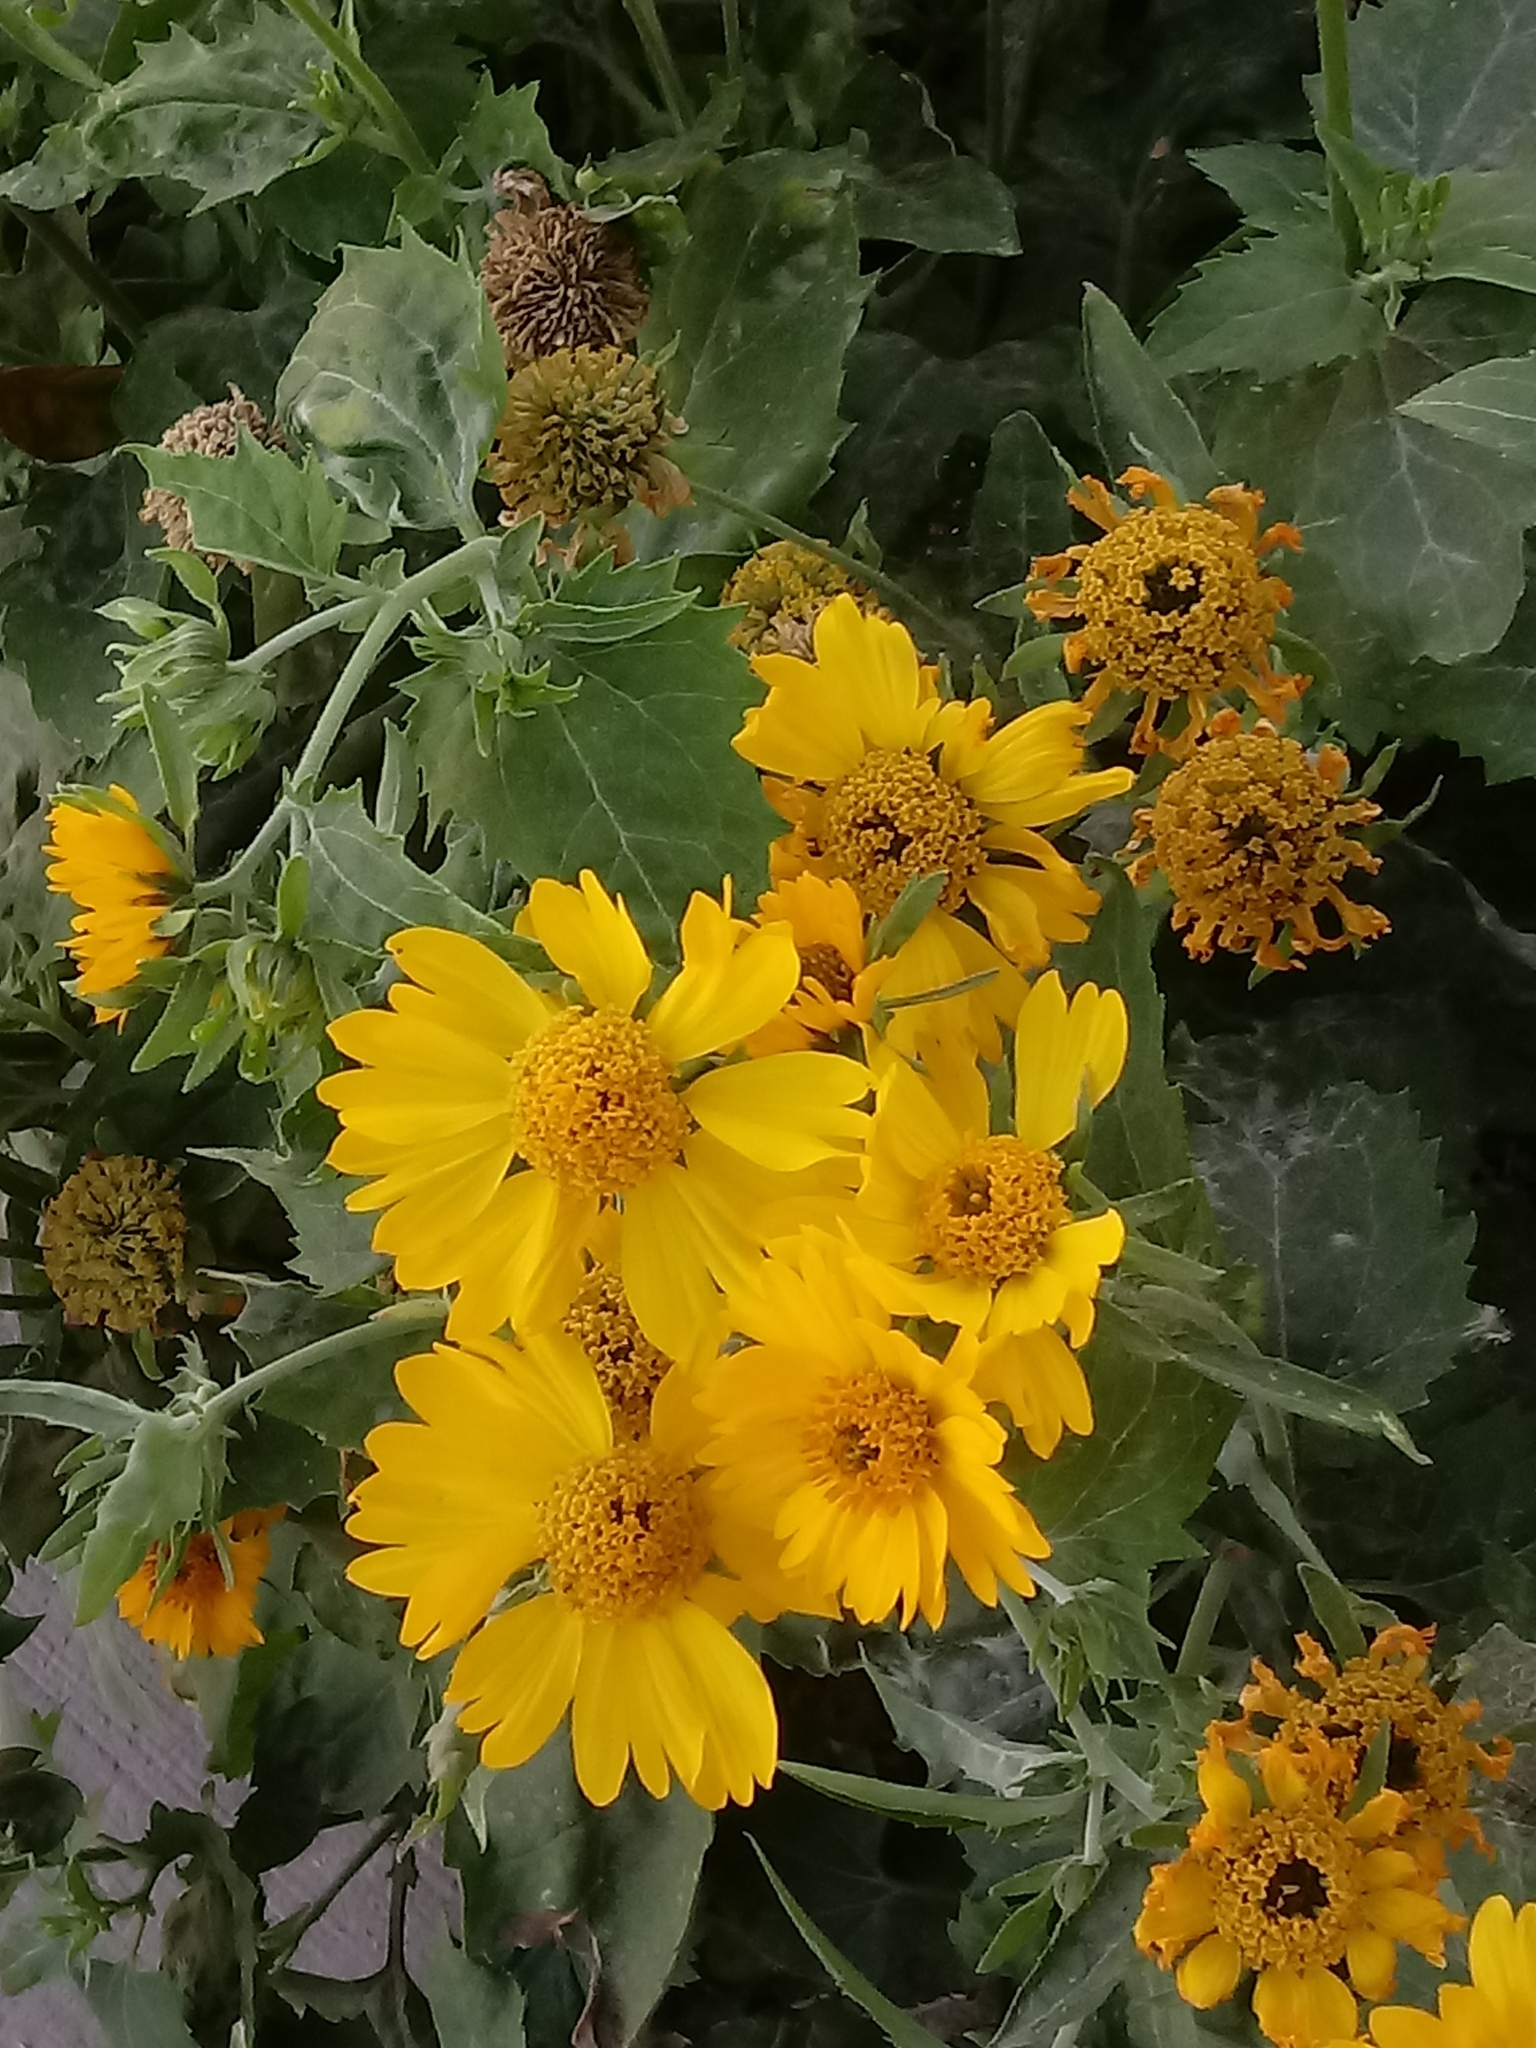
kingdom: Plantae
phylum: Tracheophyta
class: Magnoliopsida
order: Asterales
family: Asteraceae
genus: Verbesina
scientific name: Verbesina encelioides
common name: Golden crownbeard
